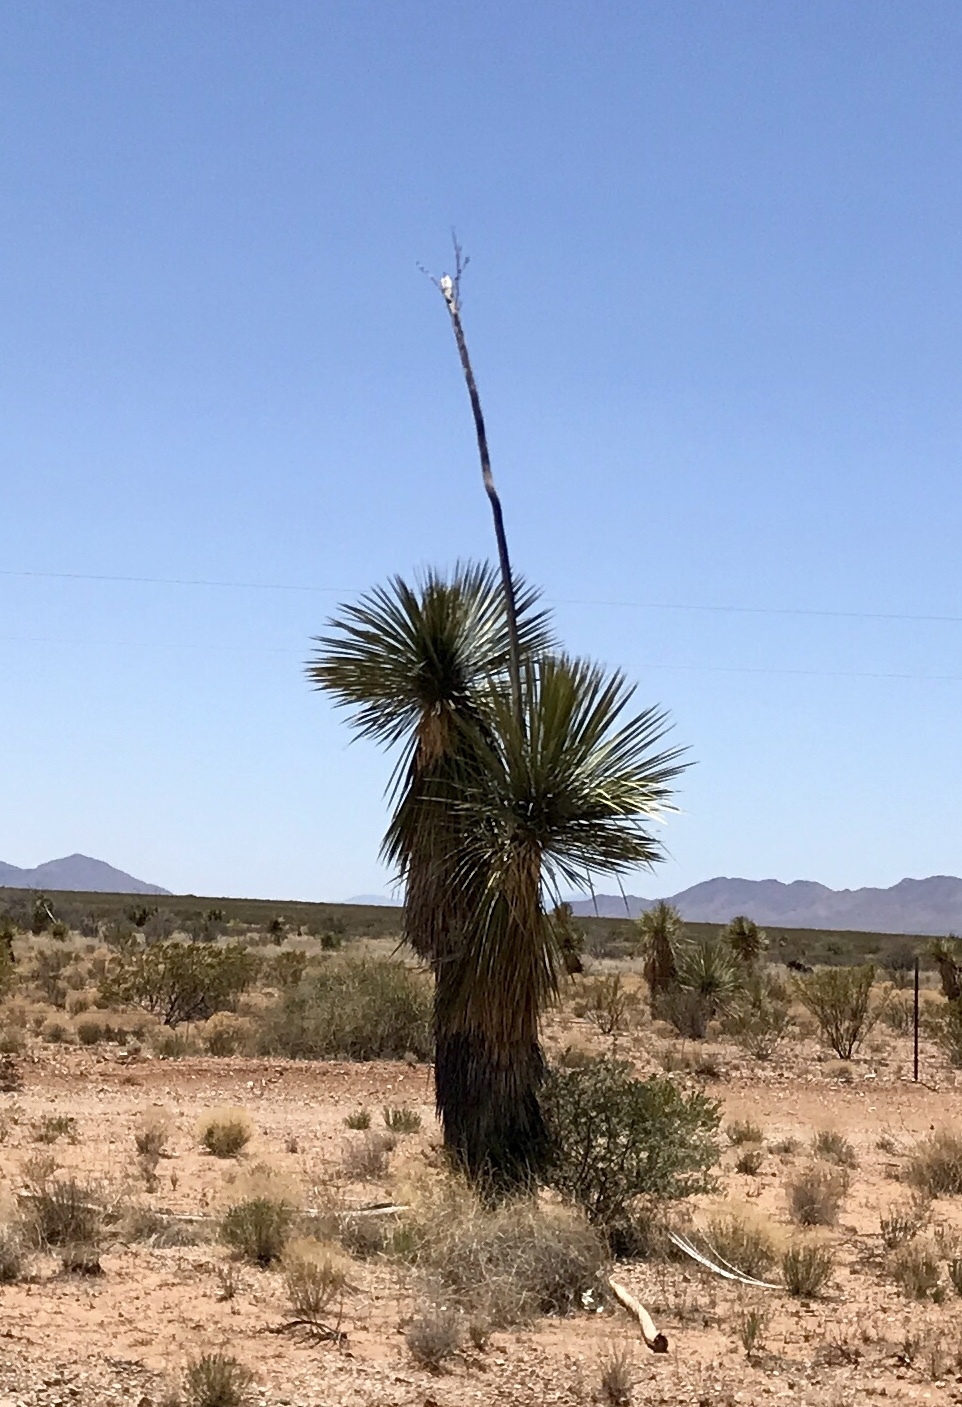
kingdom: Plantae
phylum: Tracheophyta
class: Liliopsida
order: Asparagales
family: Asparagaceae
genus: Yucca
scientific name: Yucca elata
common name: Palmella
